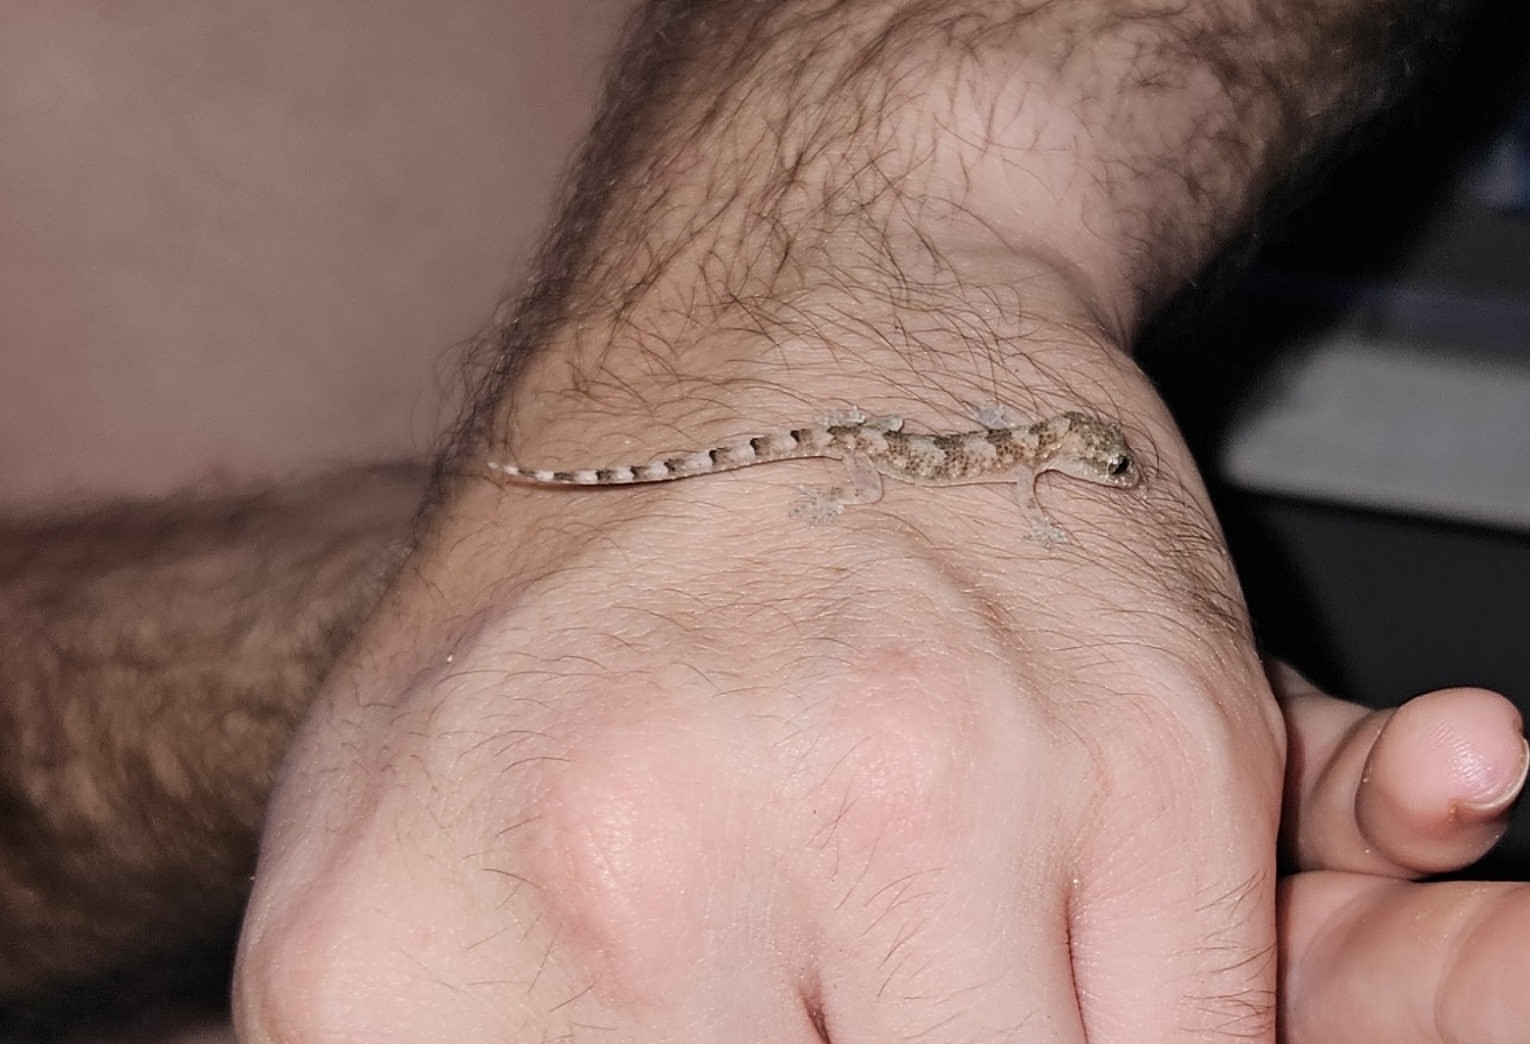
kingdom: Animalia
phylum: Chordata
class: Squamata
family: Gekkonidae
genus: Hemidactylus
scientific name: Hemidactylus mabouia
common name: House gecko
